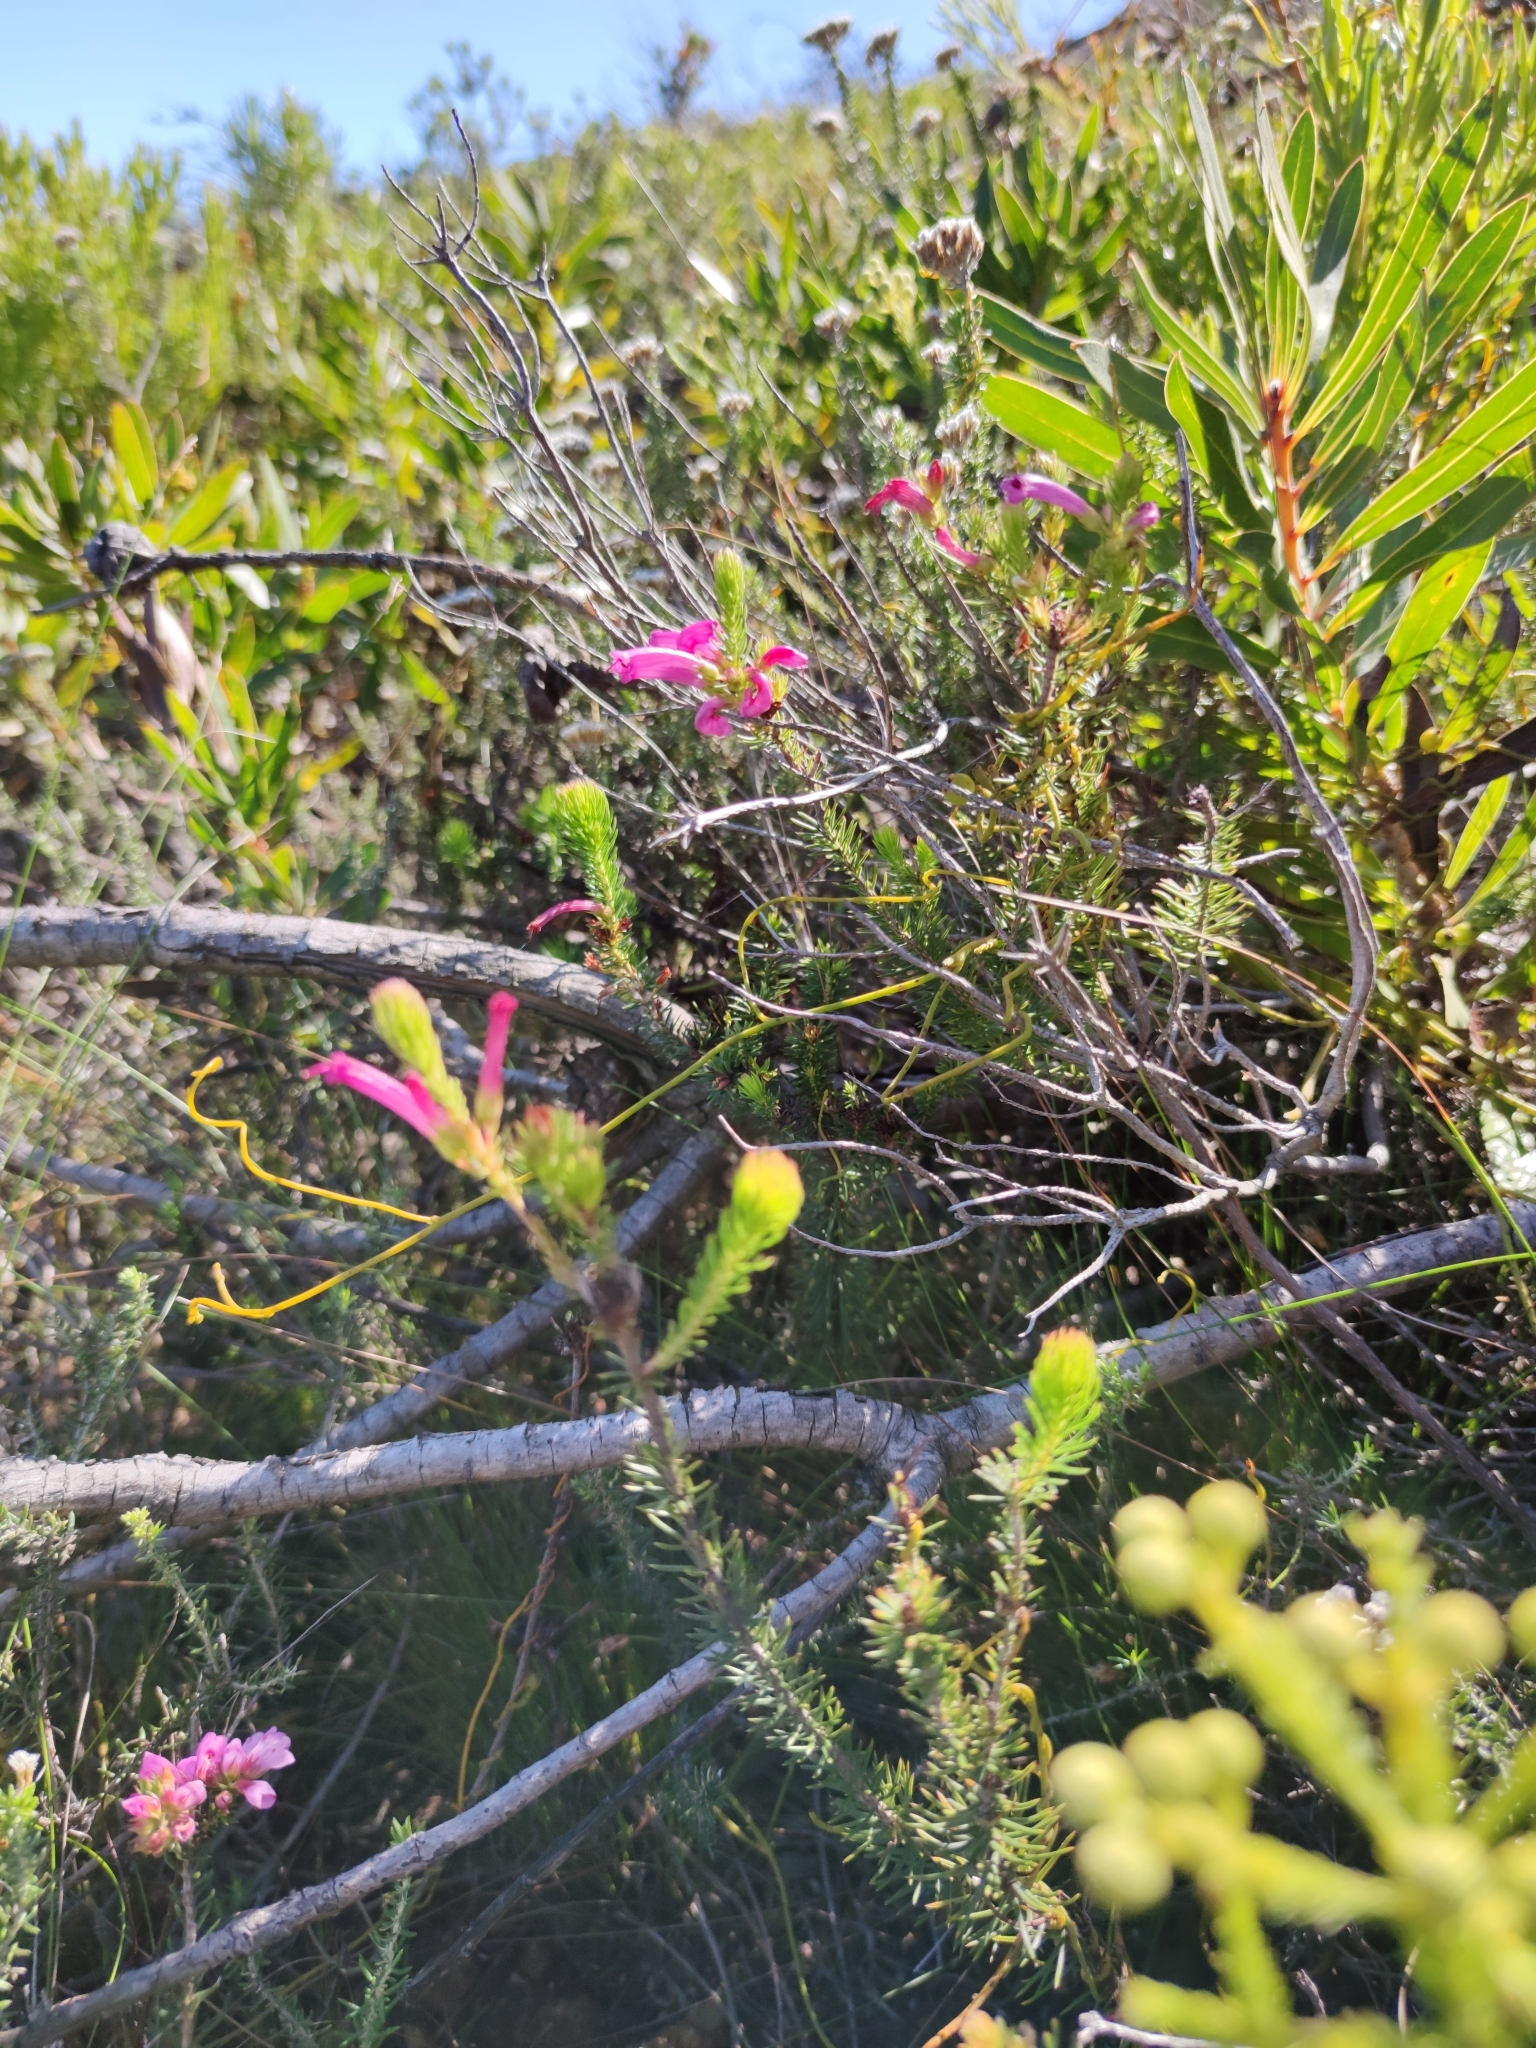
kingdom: Plantae
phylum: Tracheophyta
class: Magnoliopsida
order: Ericales
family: Ericaceae
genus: Erica
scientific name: Erica abietina
